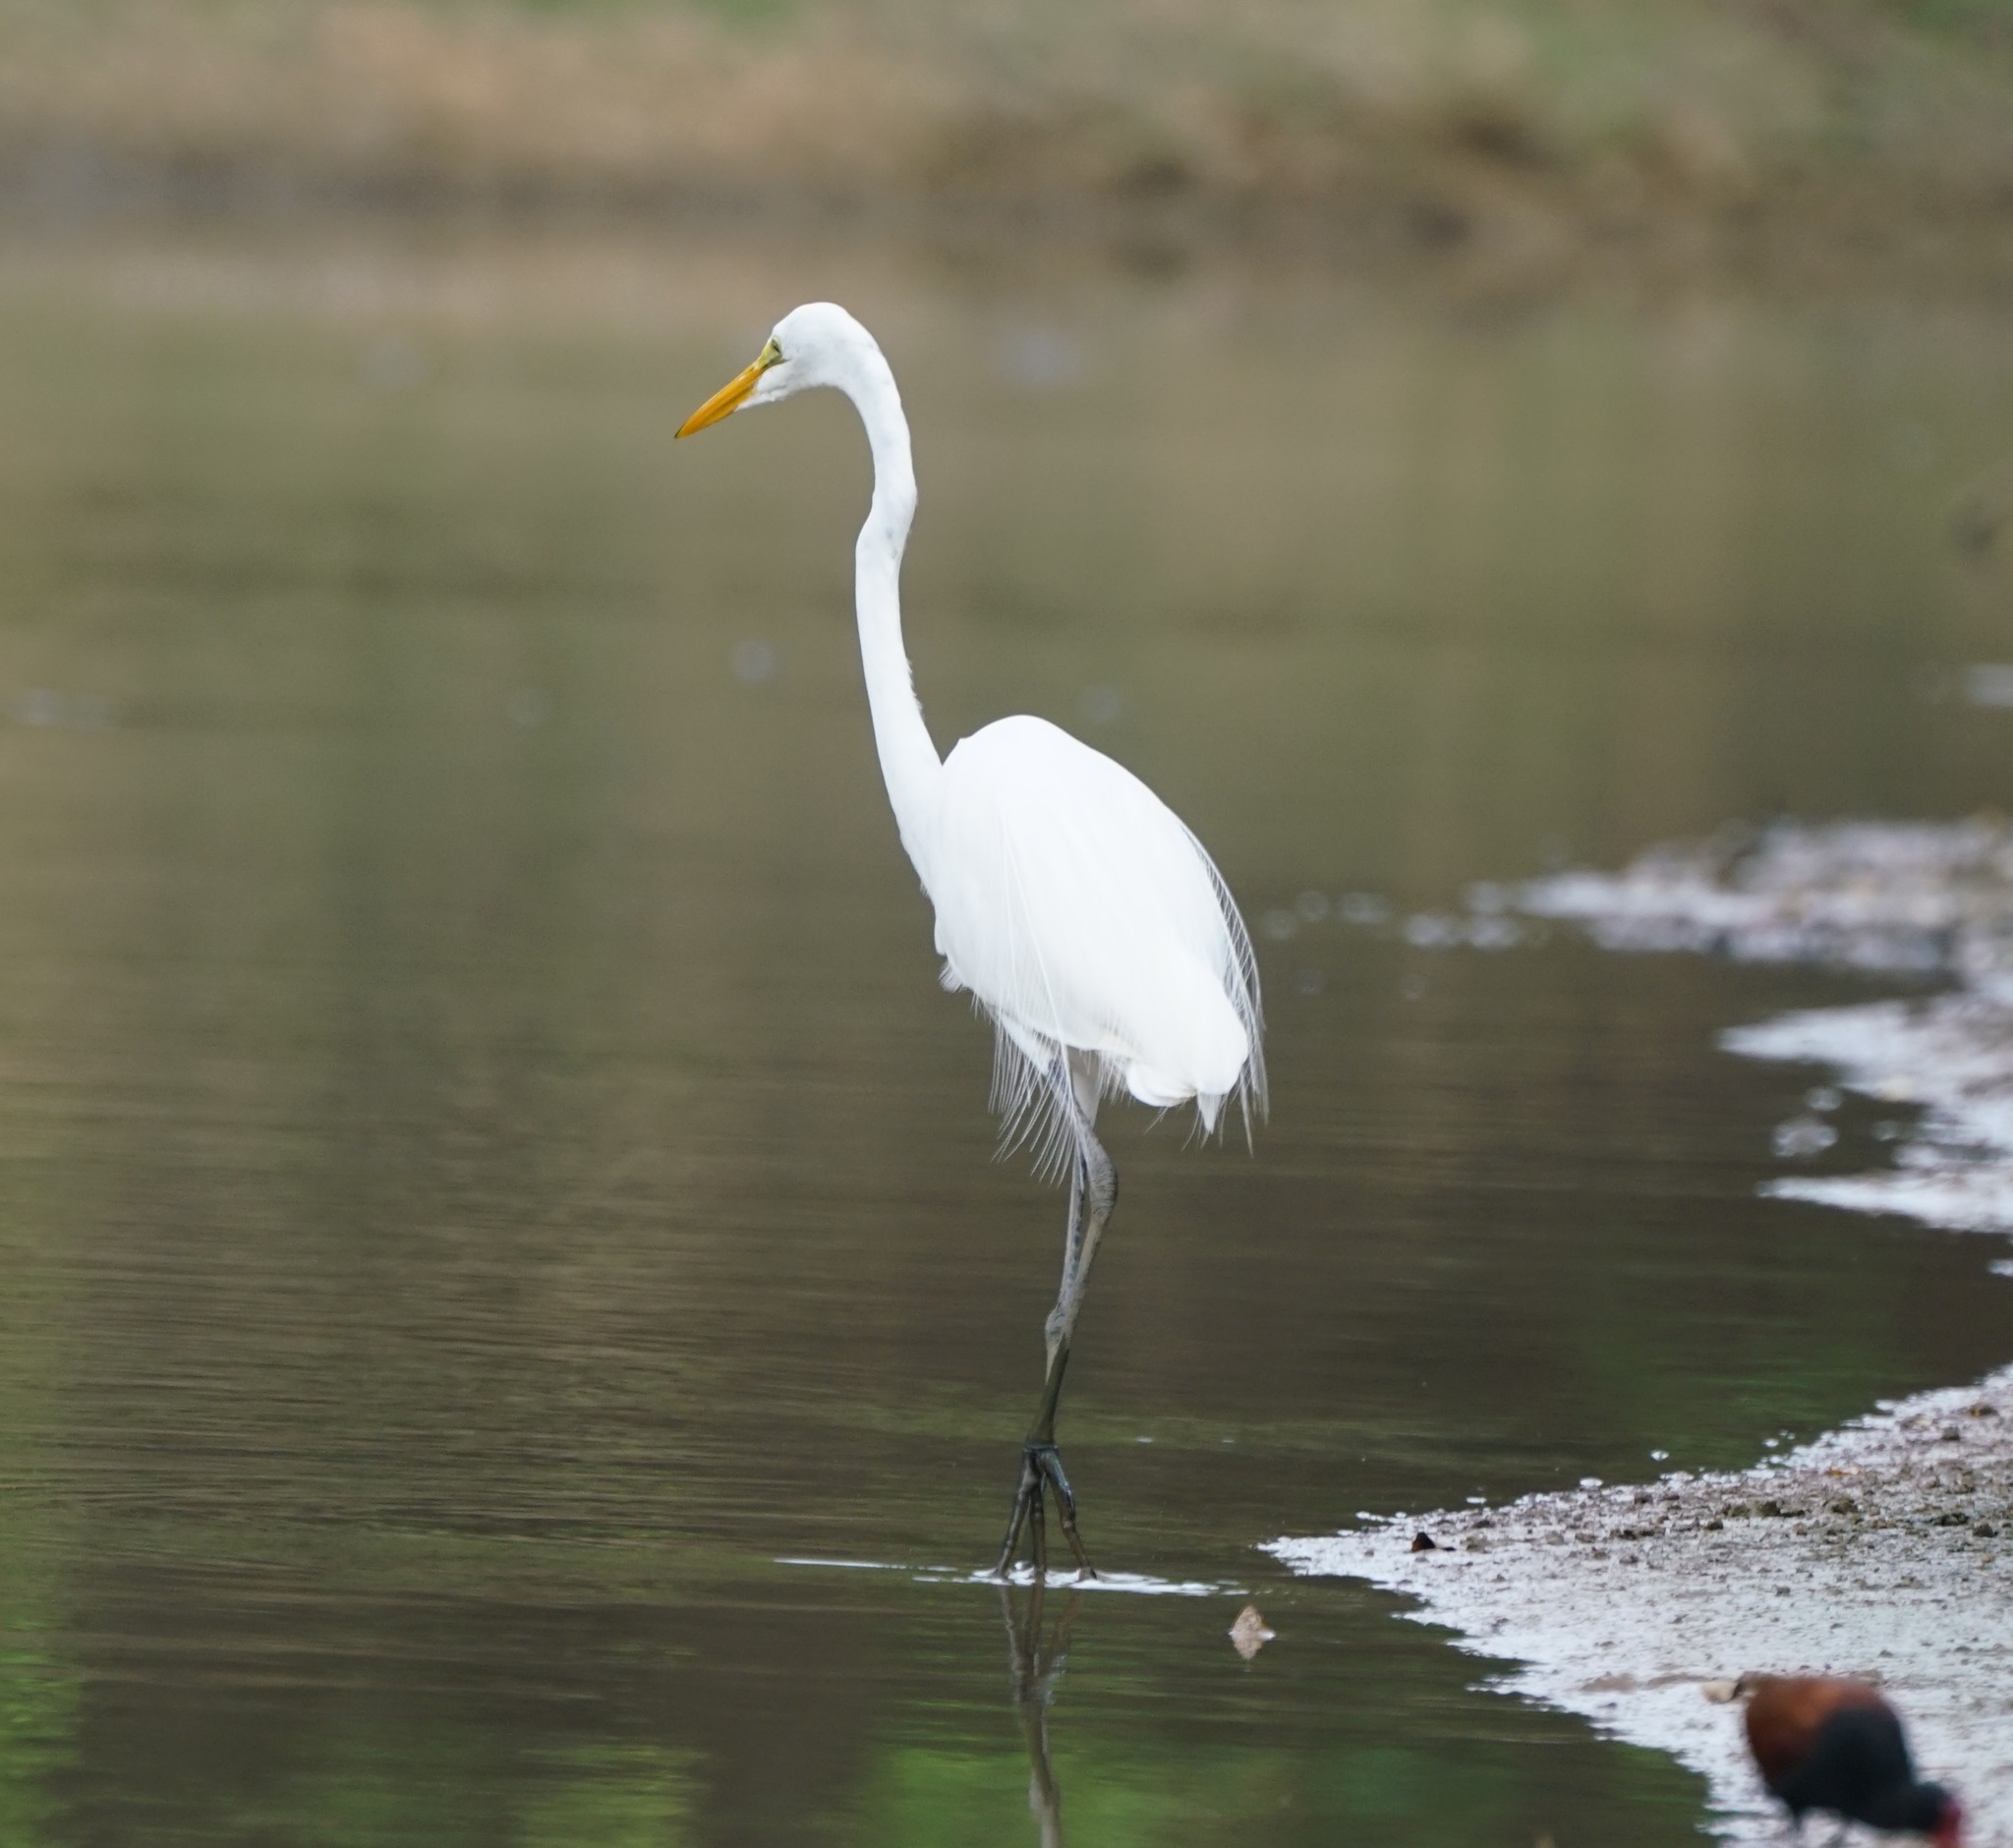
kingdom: Animalia
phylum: Chordata
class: Aves
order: Pelecaniformes
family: Ardeidae
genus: Ardea
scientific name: Ardea alba
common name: Great egret
